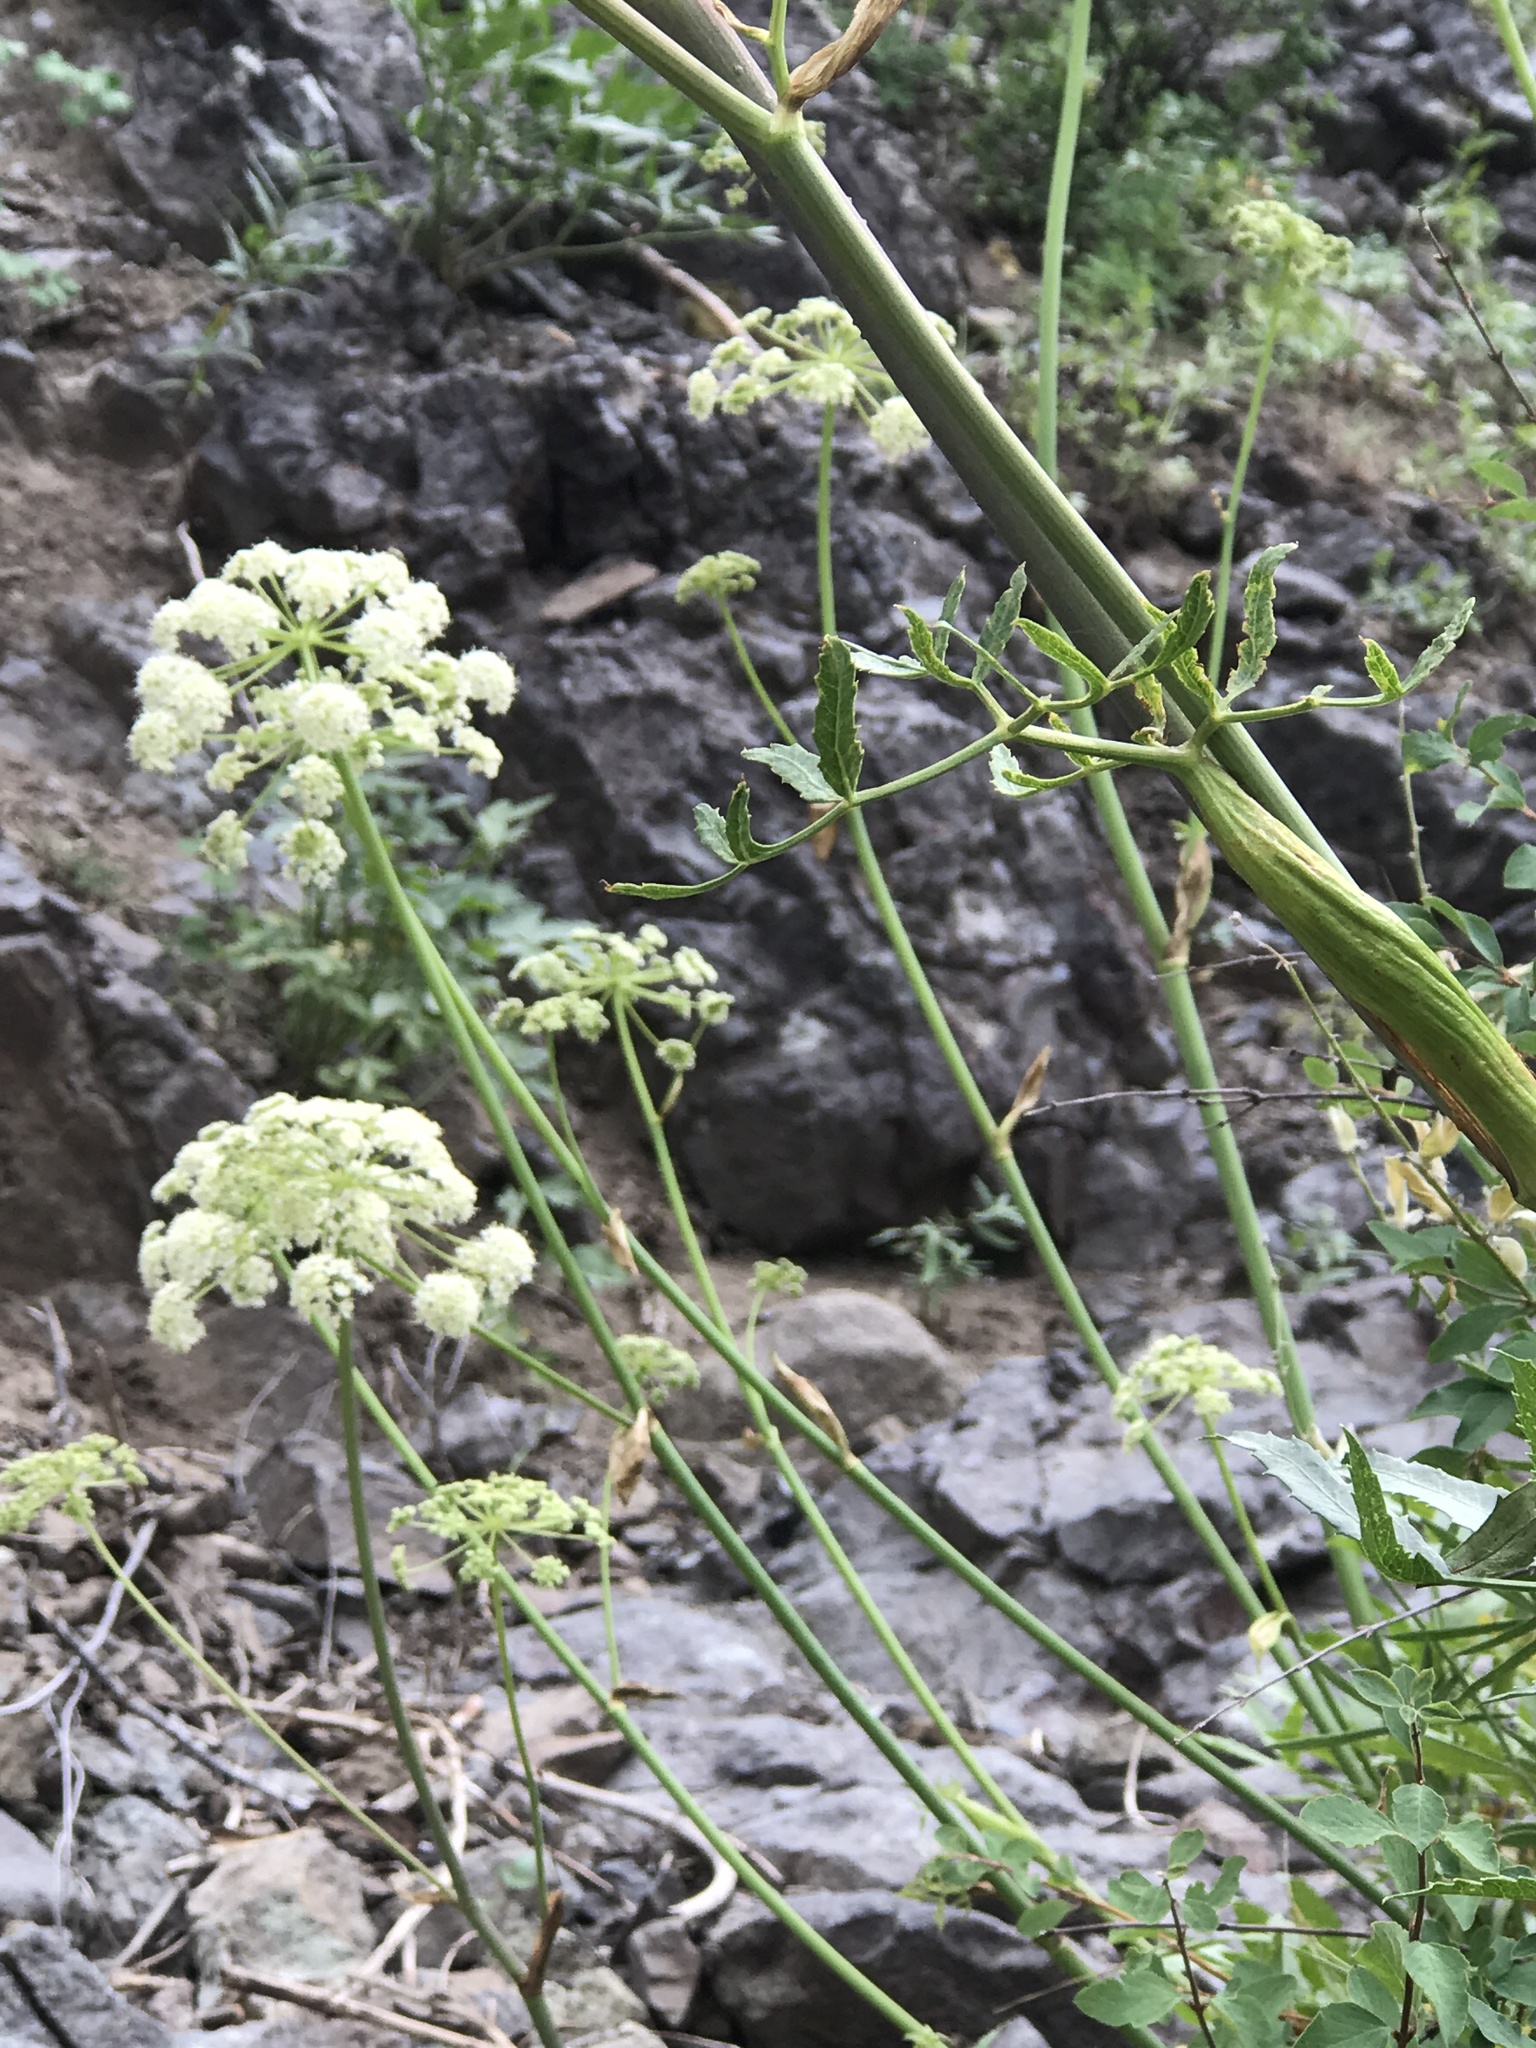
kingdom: Plantae
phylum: Tracheophyta
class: Magnoliopsida
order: Apiales
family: Apiaceae
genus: Angelica
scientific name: Angelica breweri
